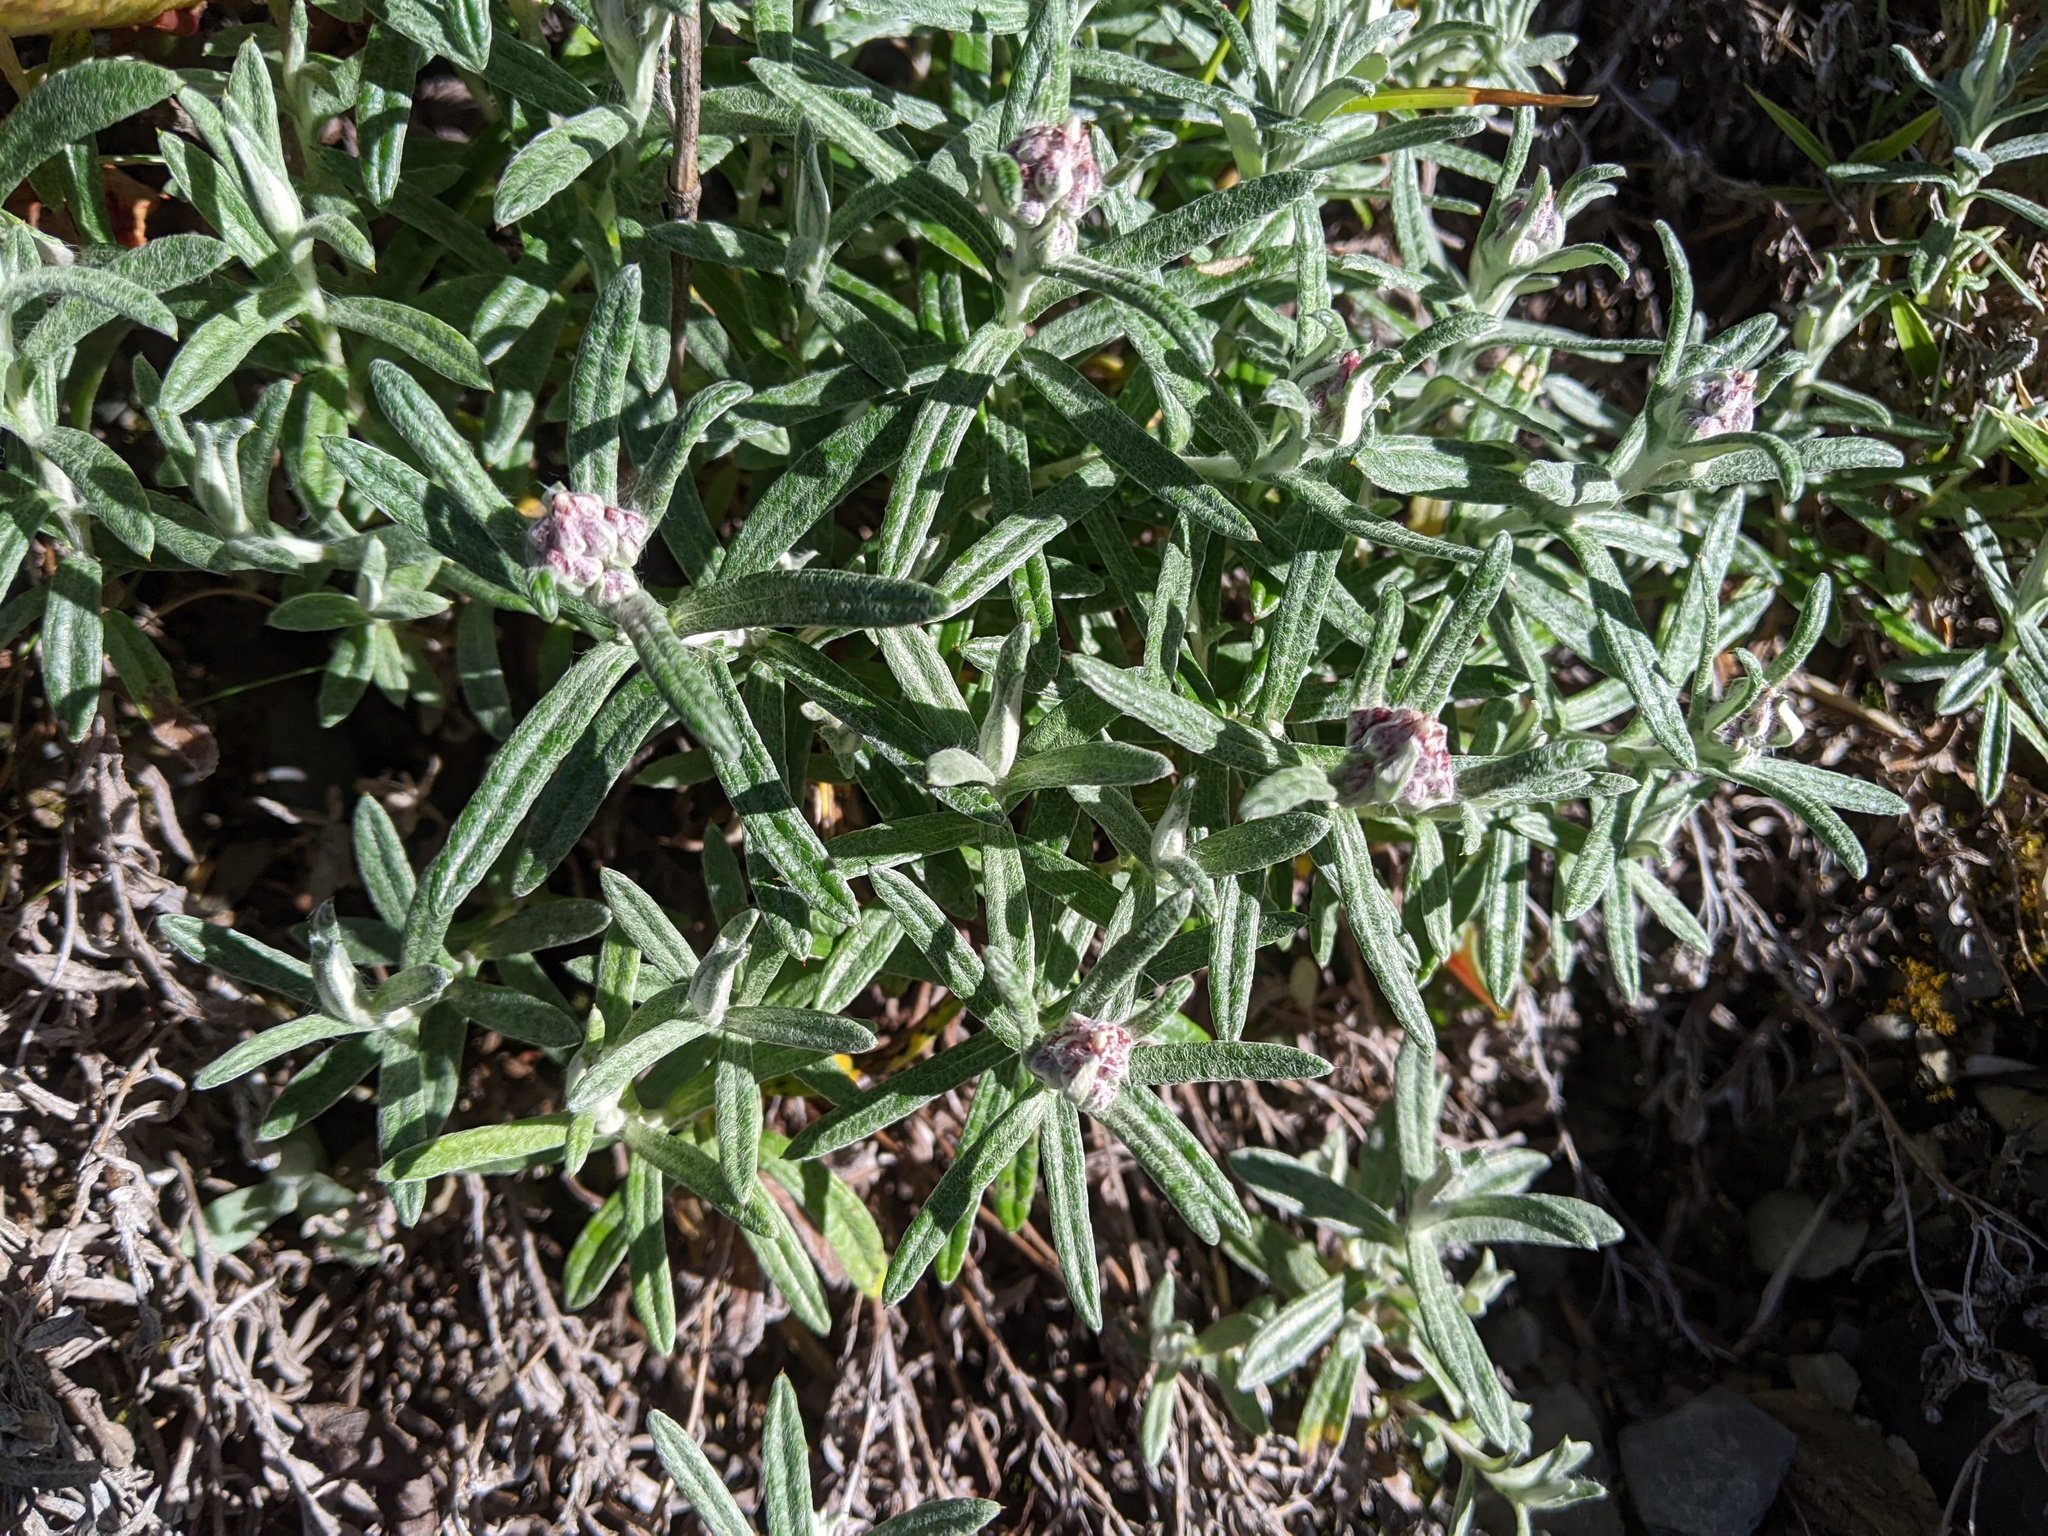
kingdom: Plantae
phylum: Tracheophyta
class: Magnoliopsida
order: Asterales
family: Asteraceae
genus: Anaphalis
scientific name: Anaphalis morrisonicola
